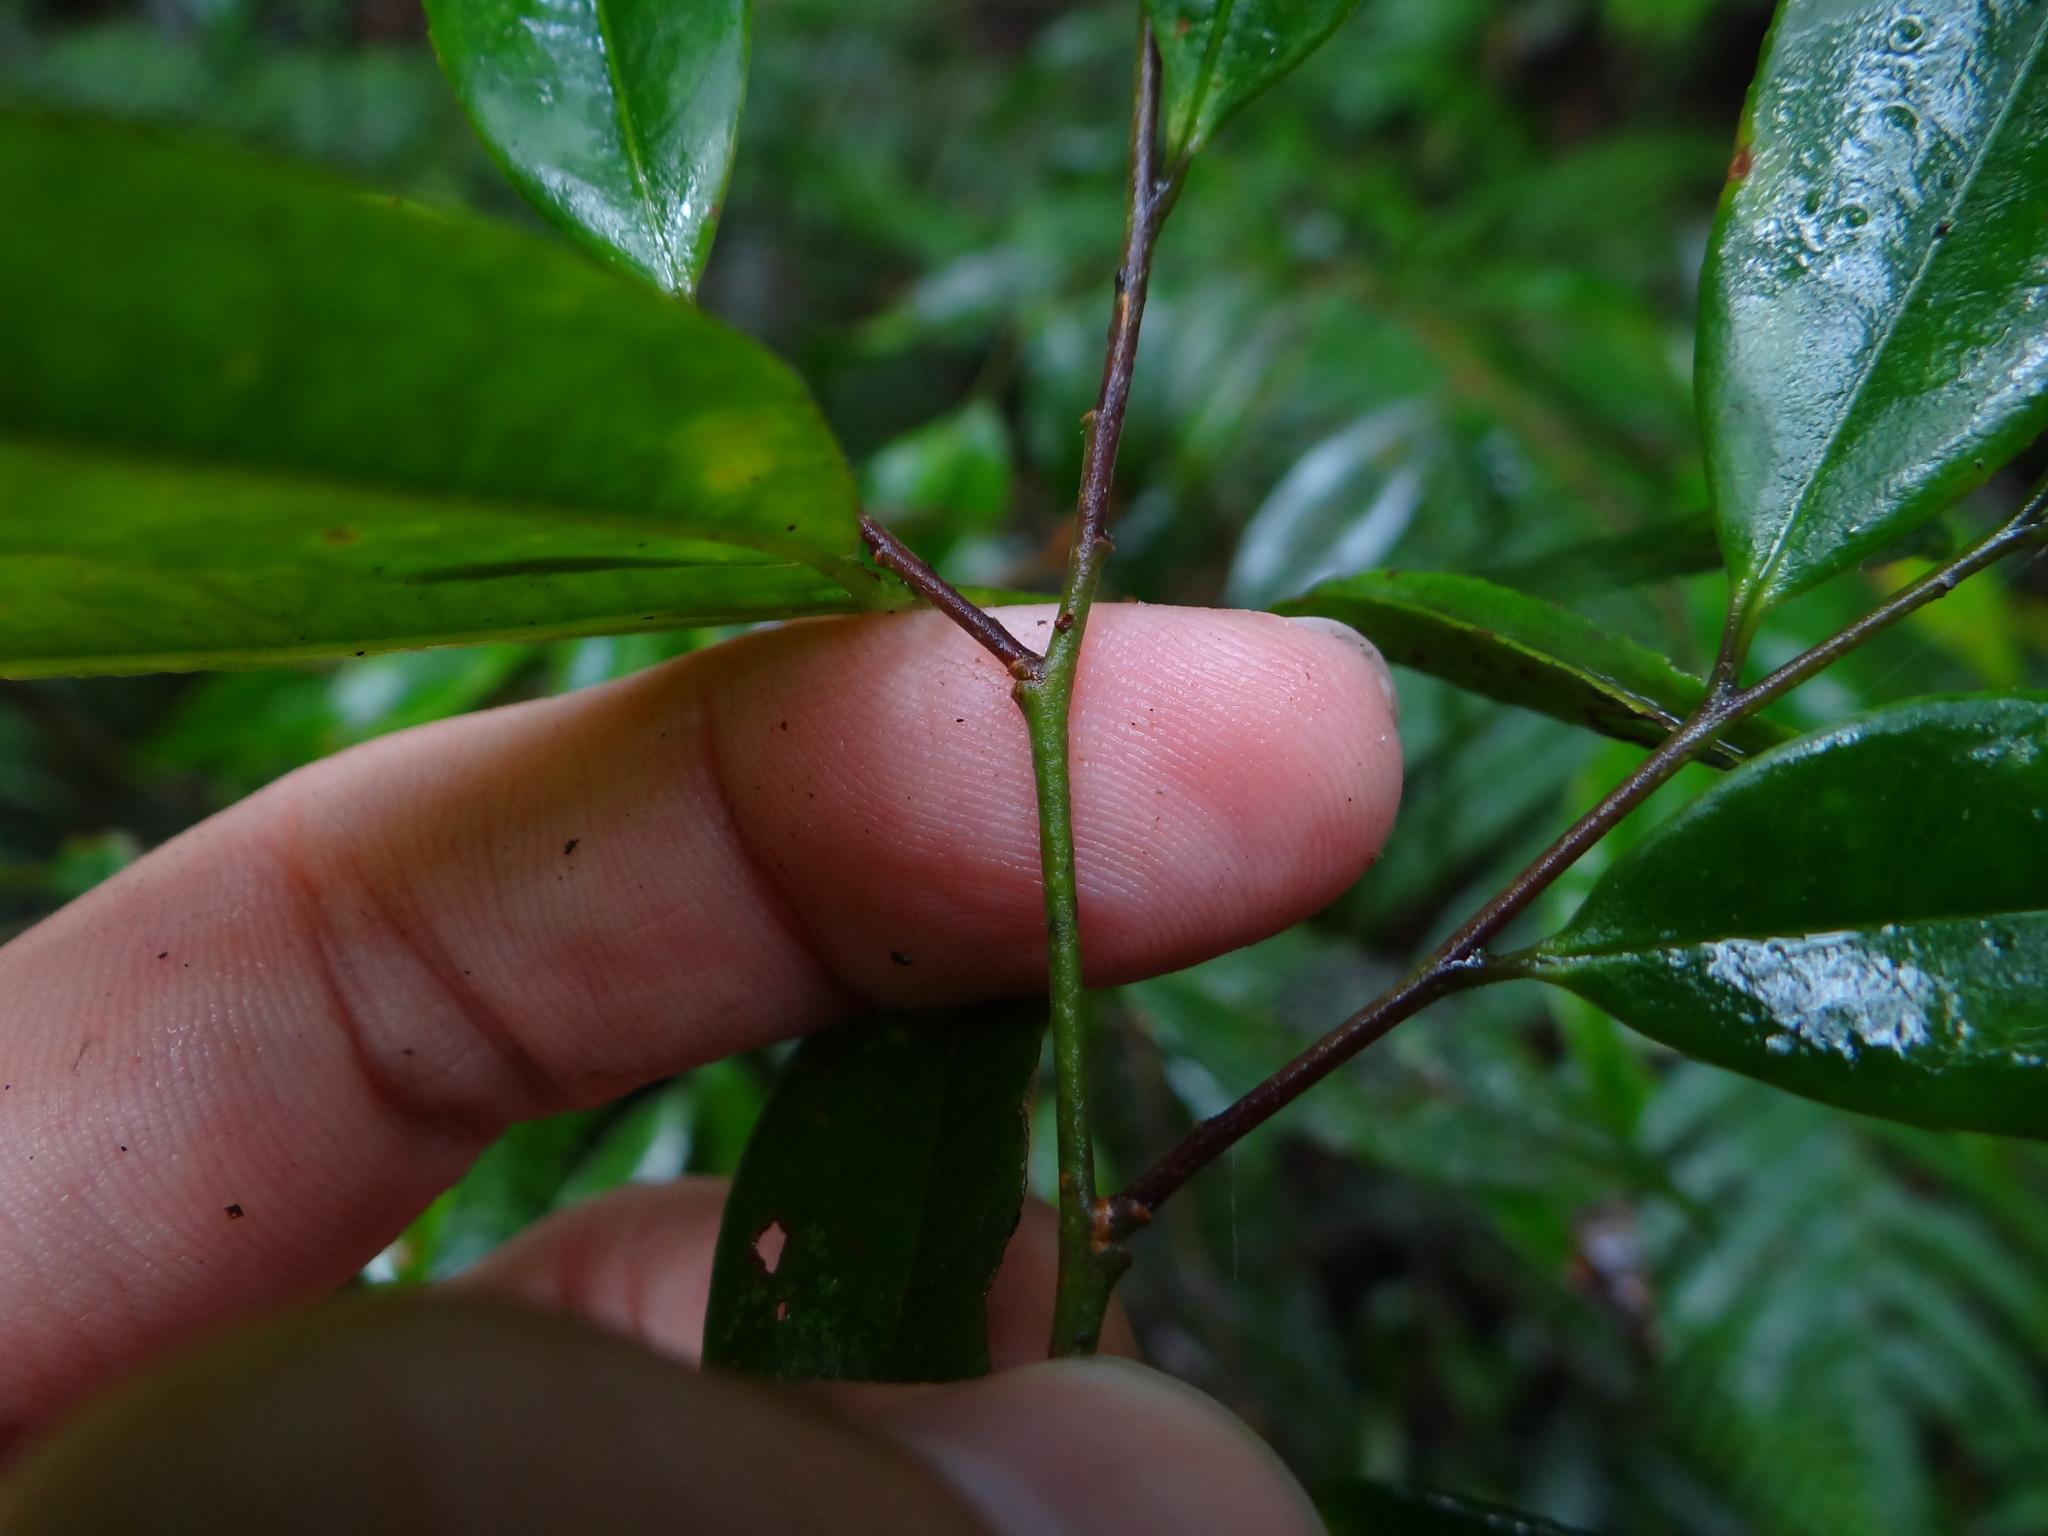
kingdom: Plantae
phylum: Tracheophyta
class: Magnoliopsida
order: Ericales
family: Pentaphylacaceae
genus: Eurya
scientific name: Eurya loquaiana
